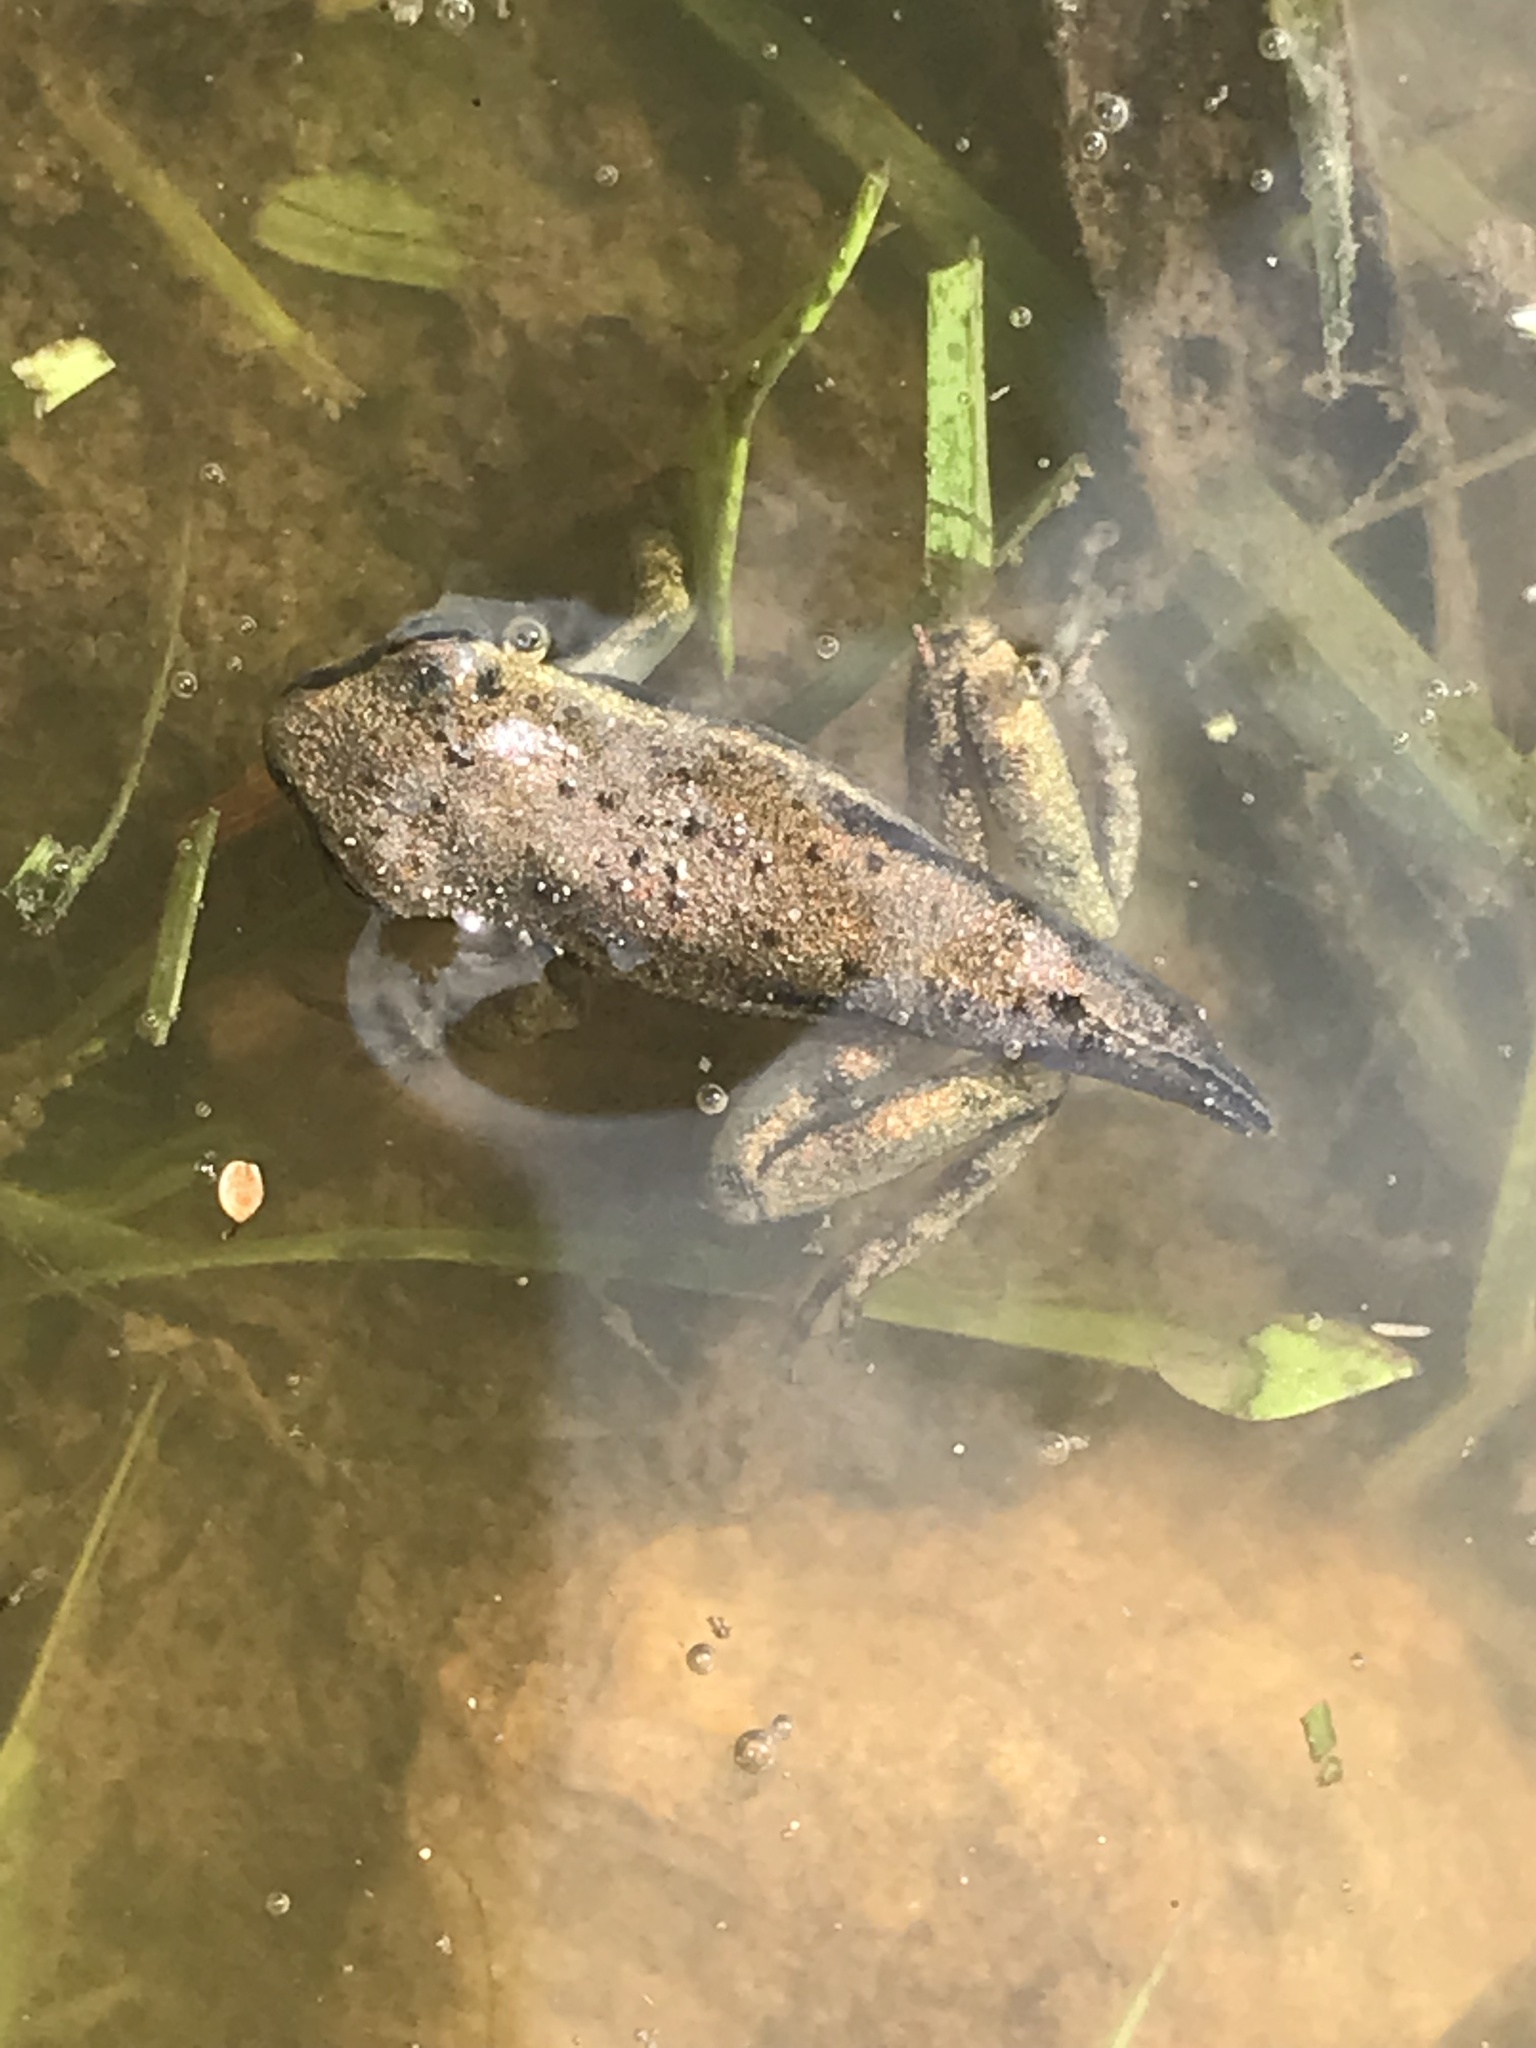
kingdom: Animalia
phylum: Chordata
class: Amphibia
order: Anura
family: Hylidae
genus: Osteopilus
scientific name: Osteopilus septentrionalis
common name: Cuban treefrog
